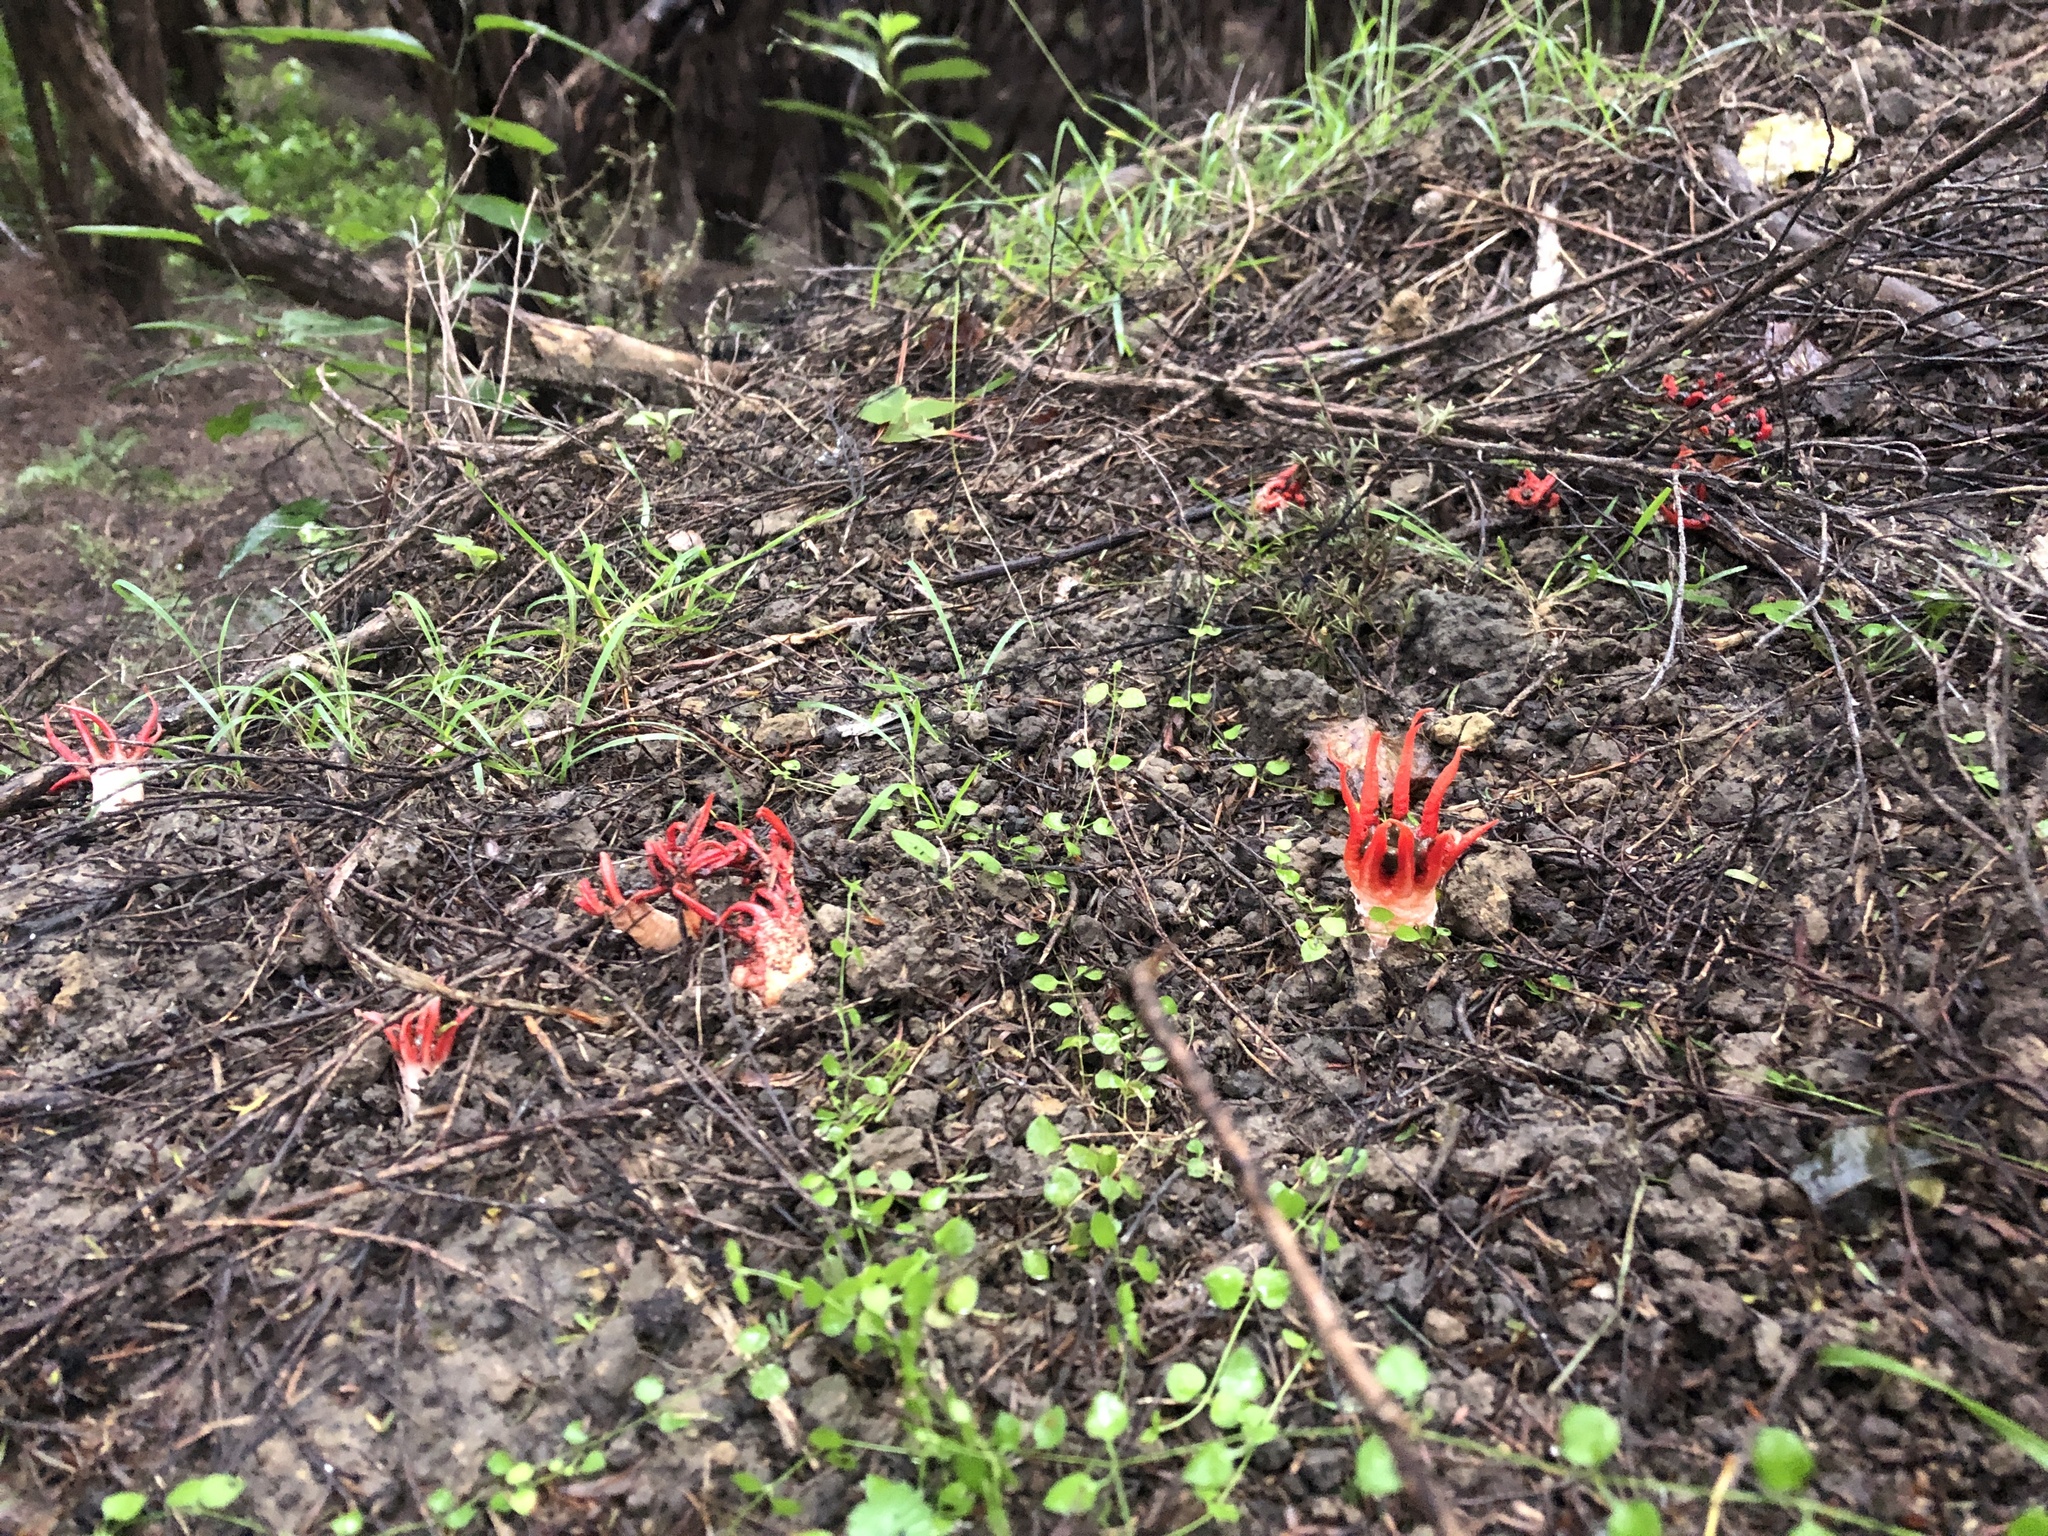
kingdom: Fungi
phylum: Basidiomycota
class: Agaricomycetes
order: Phallales
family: Phallaceae
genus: Aseroe
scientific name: Aseroe rubra
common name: Starfish fungus
